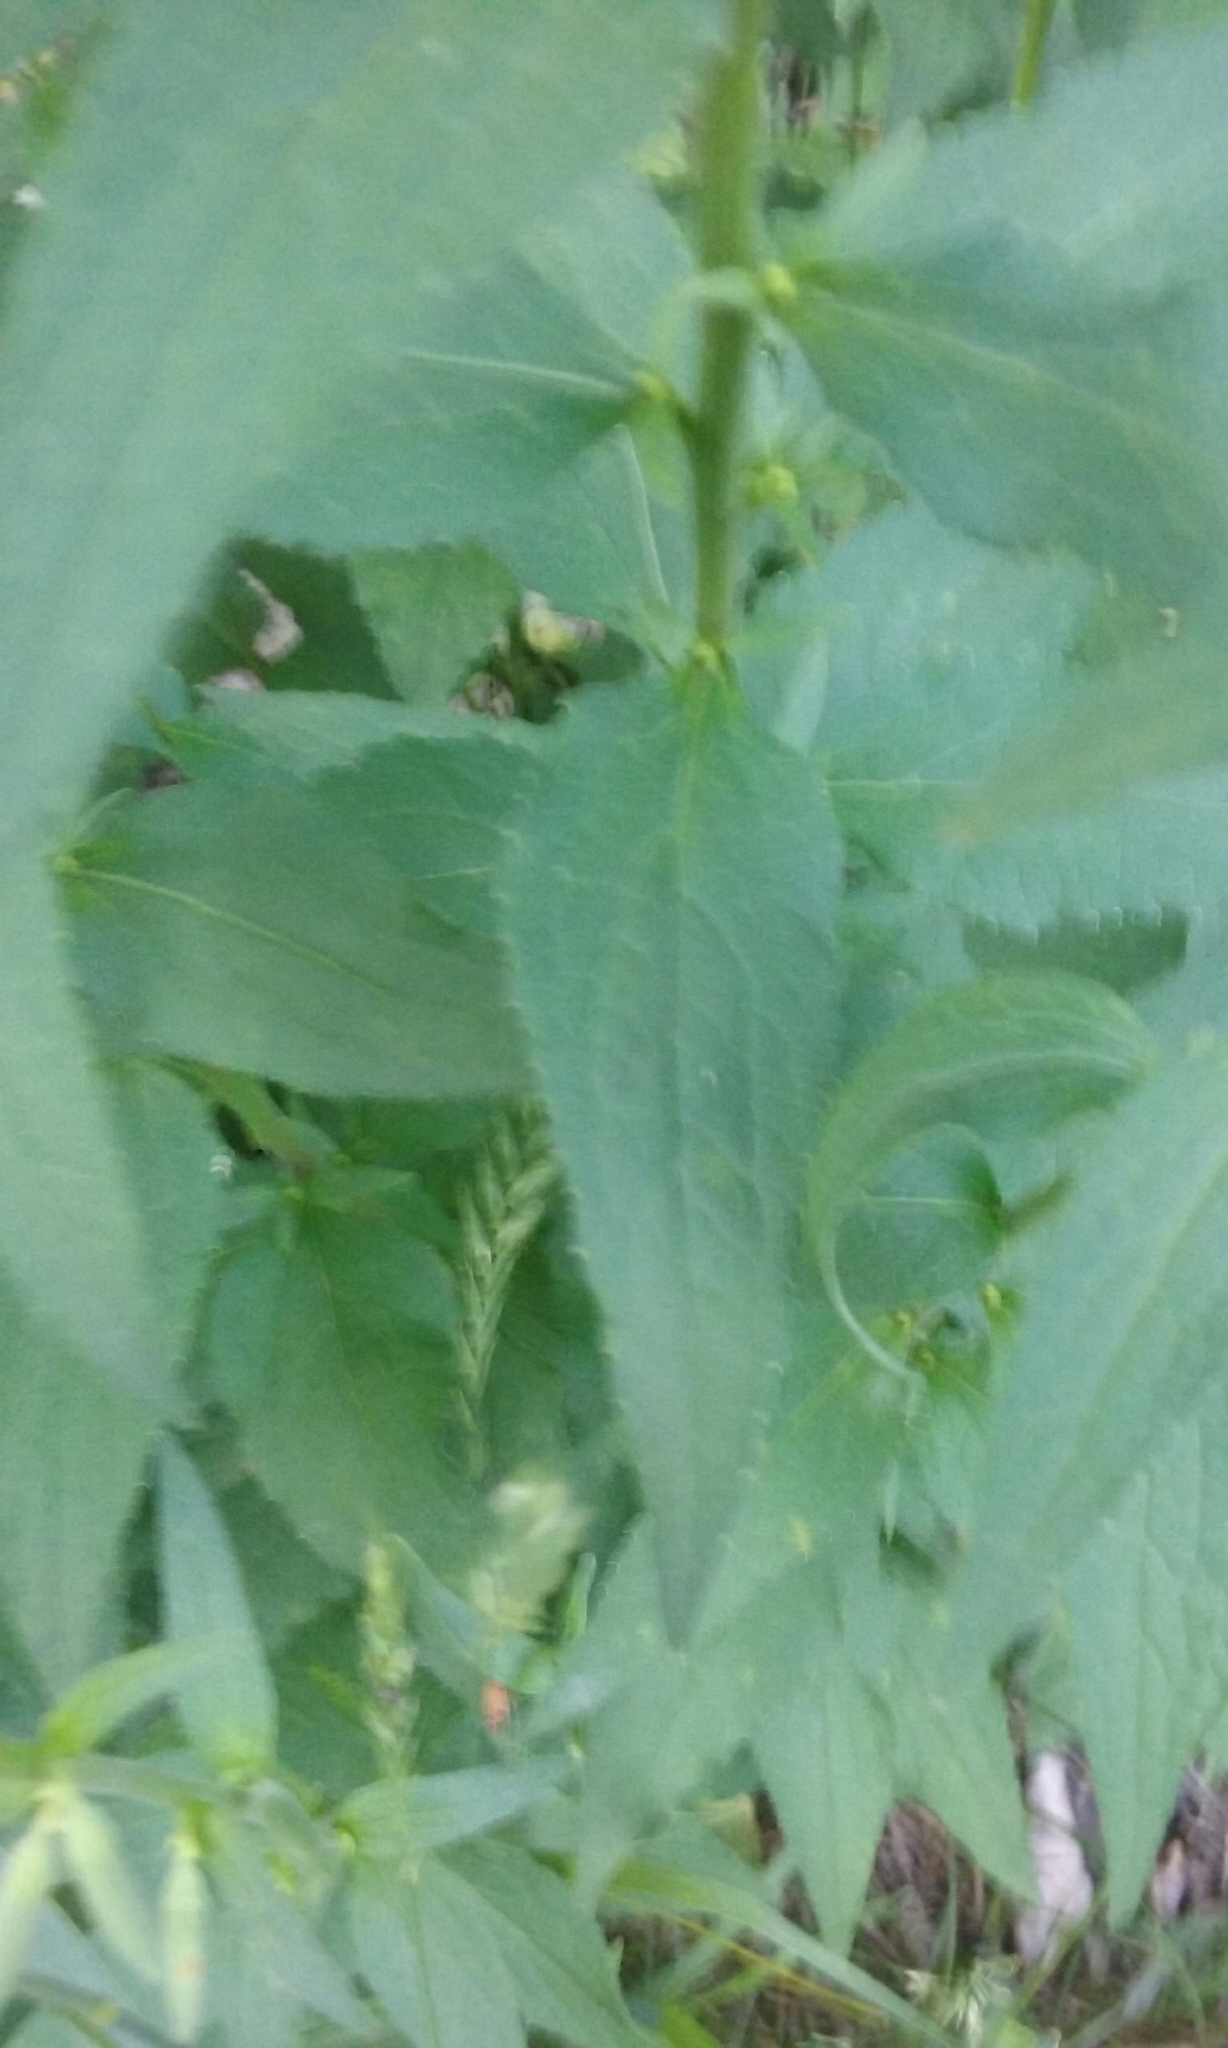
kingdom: Plantae
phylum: Tracheophyta
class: Magnoliopsida
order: Asterales
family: Campanulaceae
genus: Campanula
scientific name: Campanula rapunculoides
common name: Creeping bellflower
